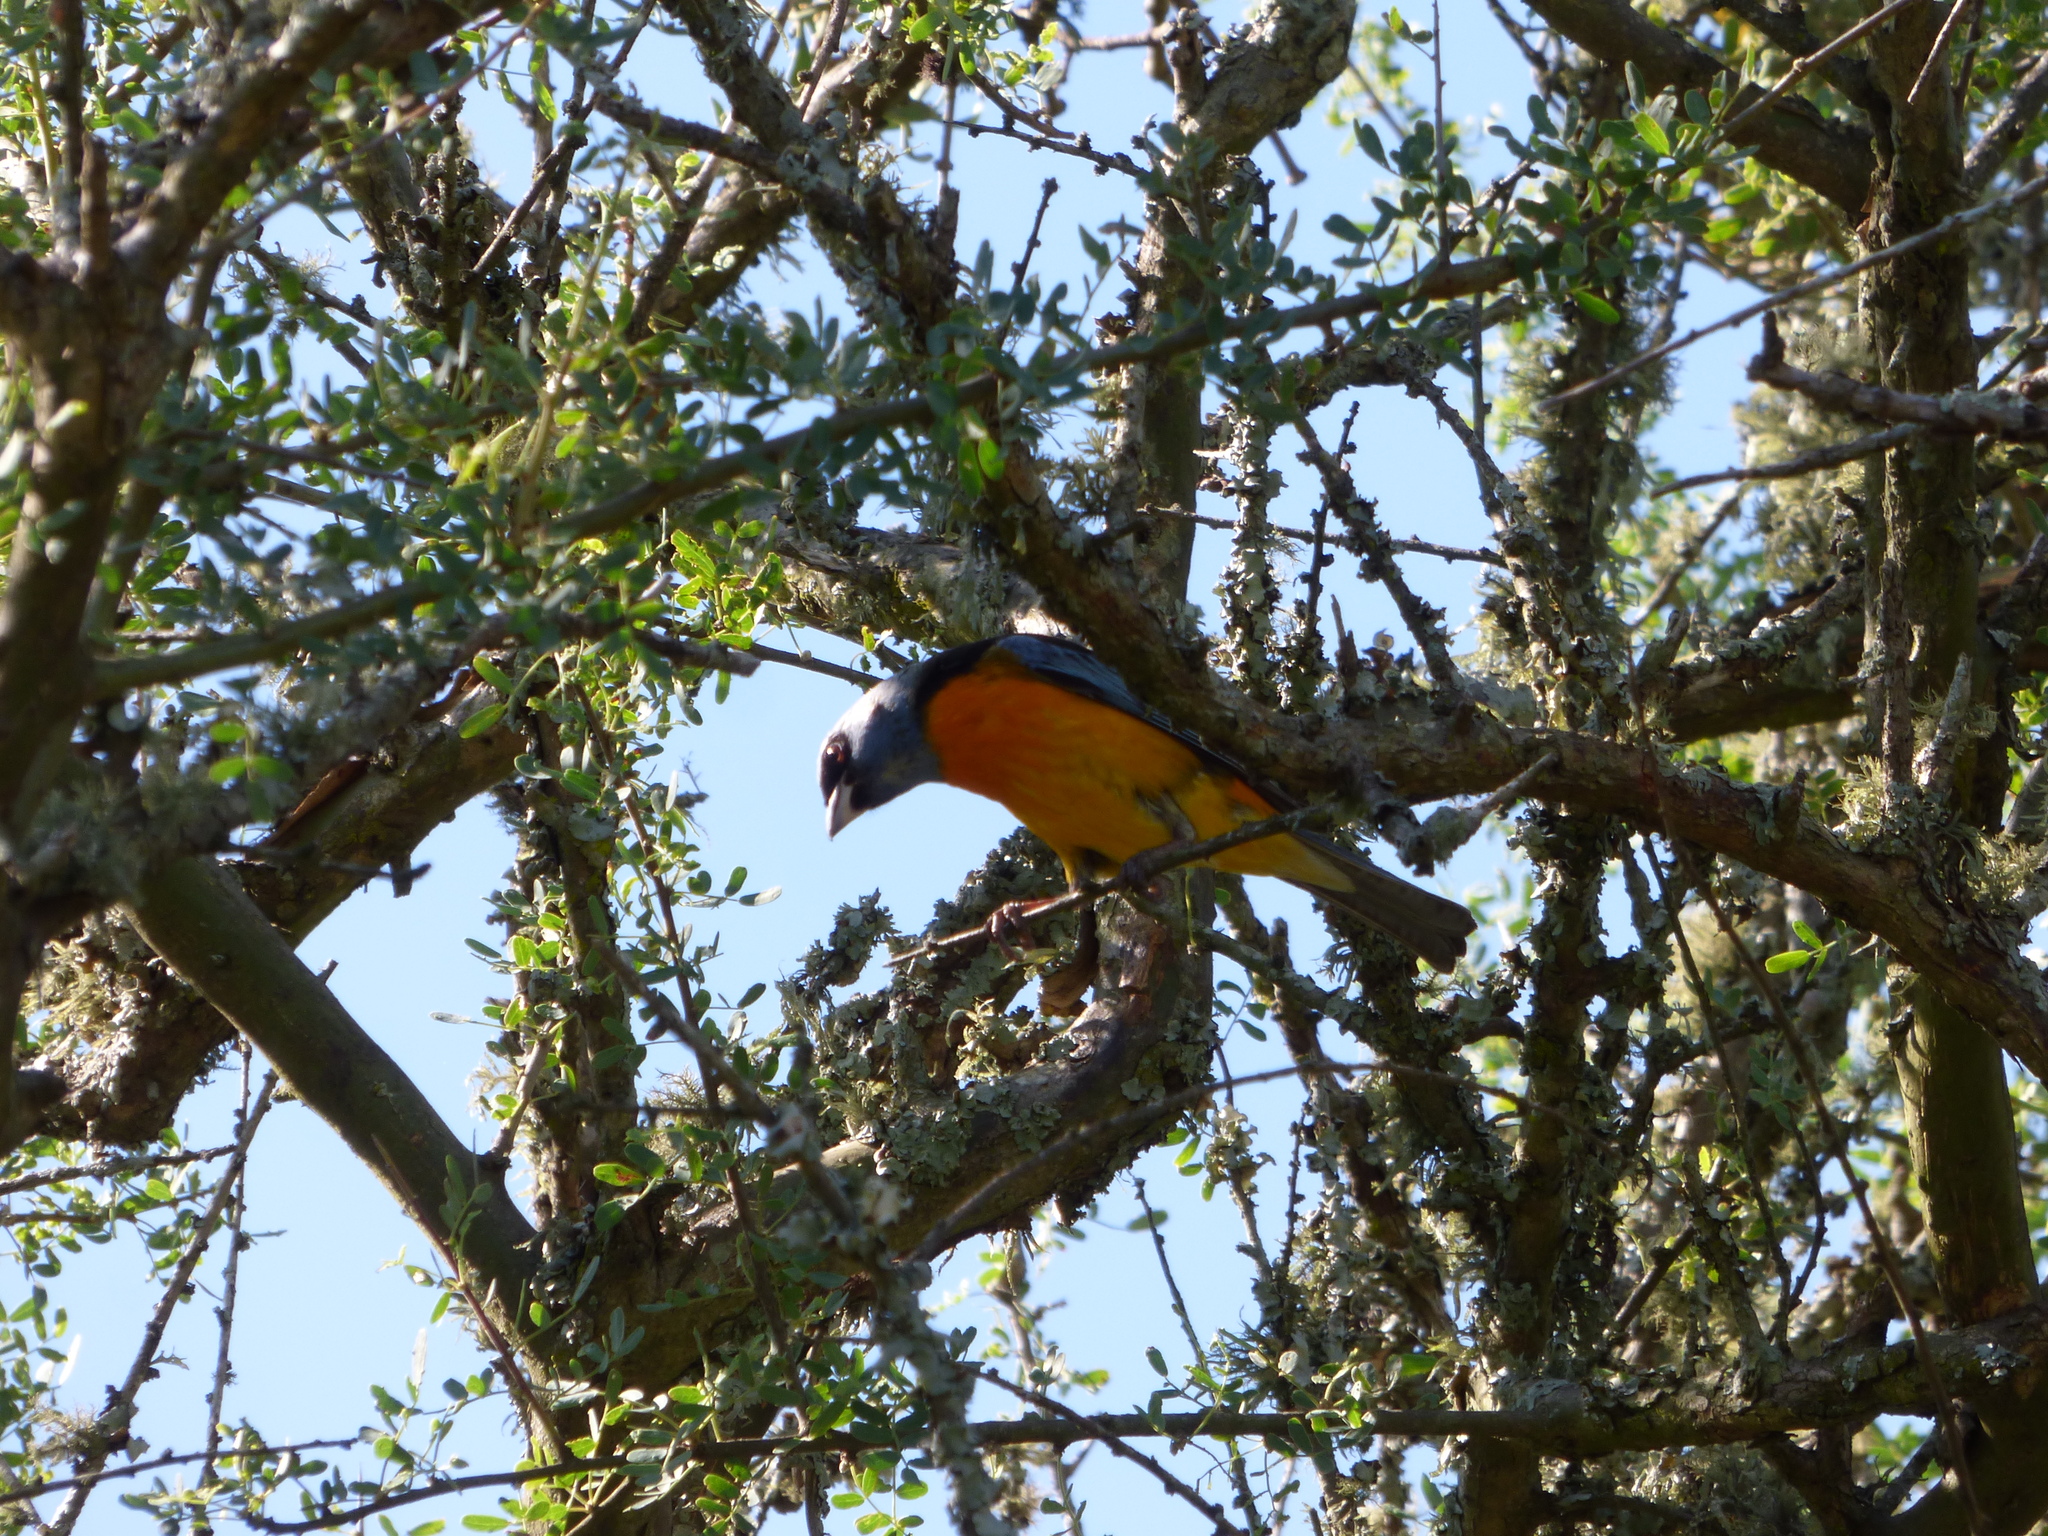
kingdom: Animalia
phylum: Chordata
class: Aves
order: Passeriformes
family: Thraupidae
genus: Rauenia
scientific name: Rauenia bonariensis
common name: Blue-and-yellow tanager
